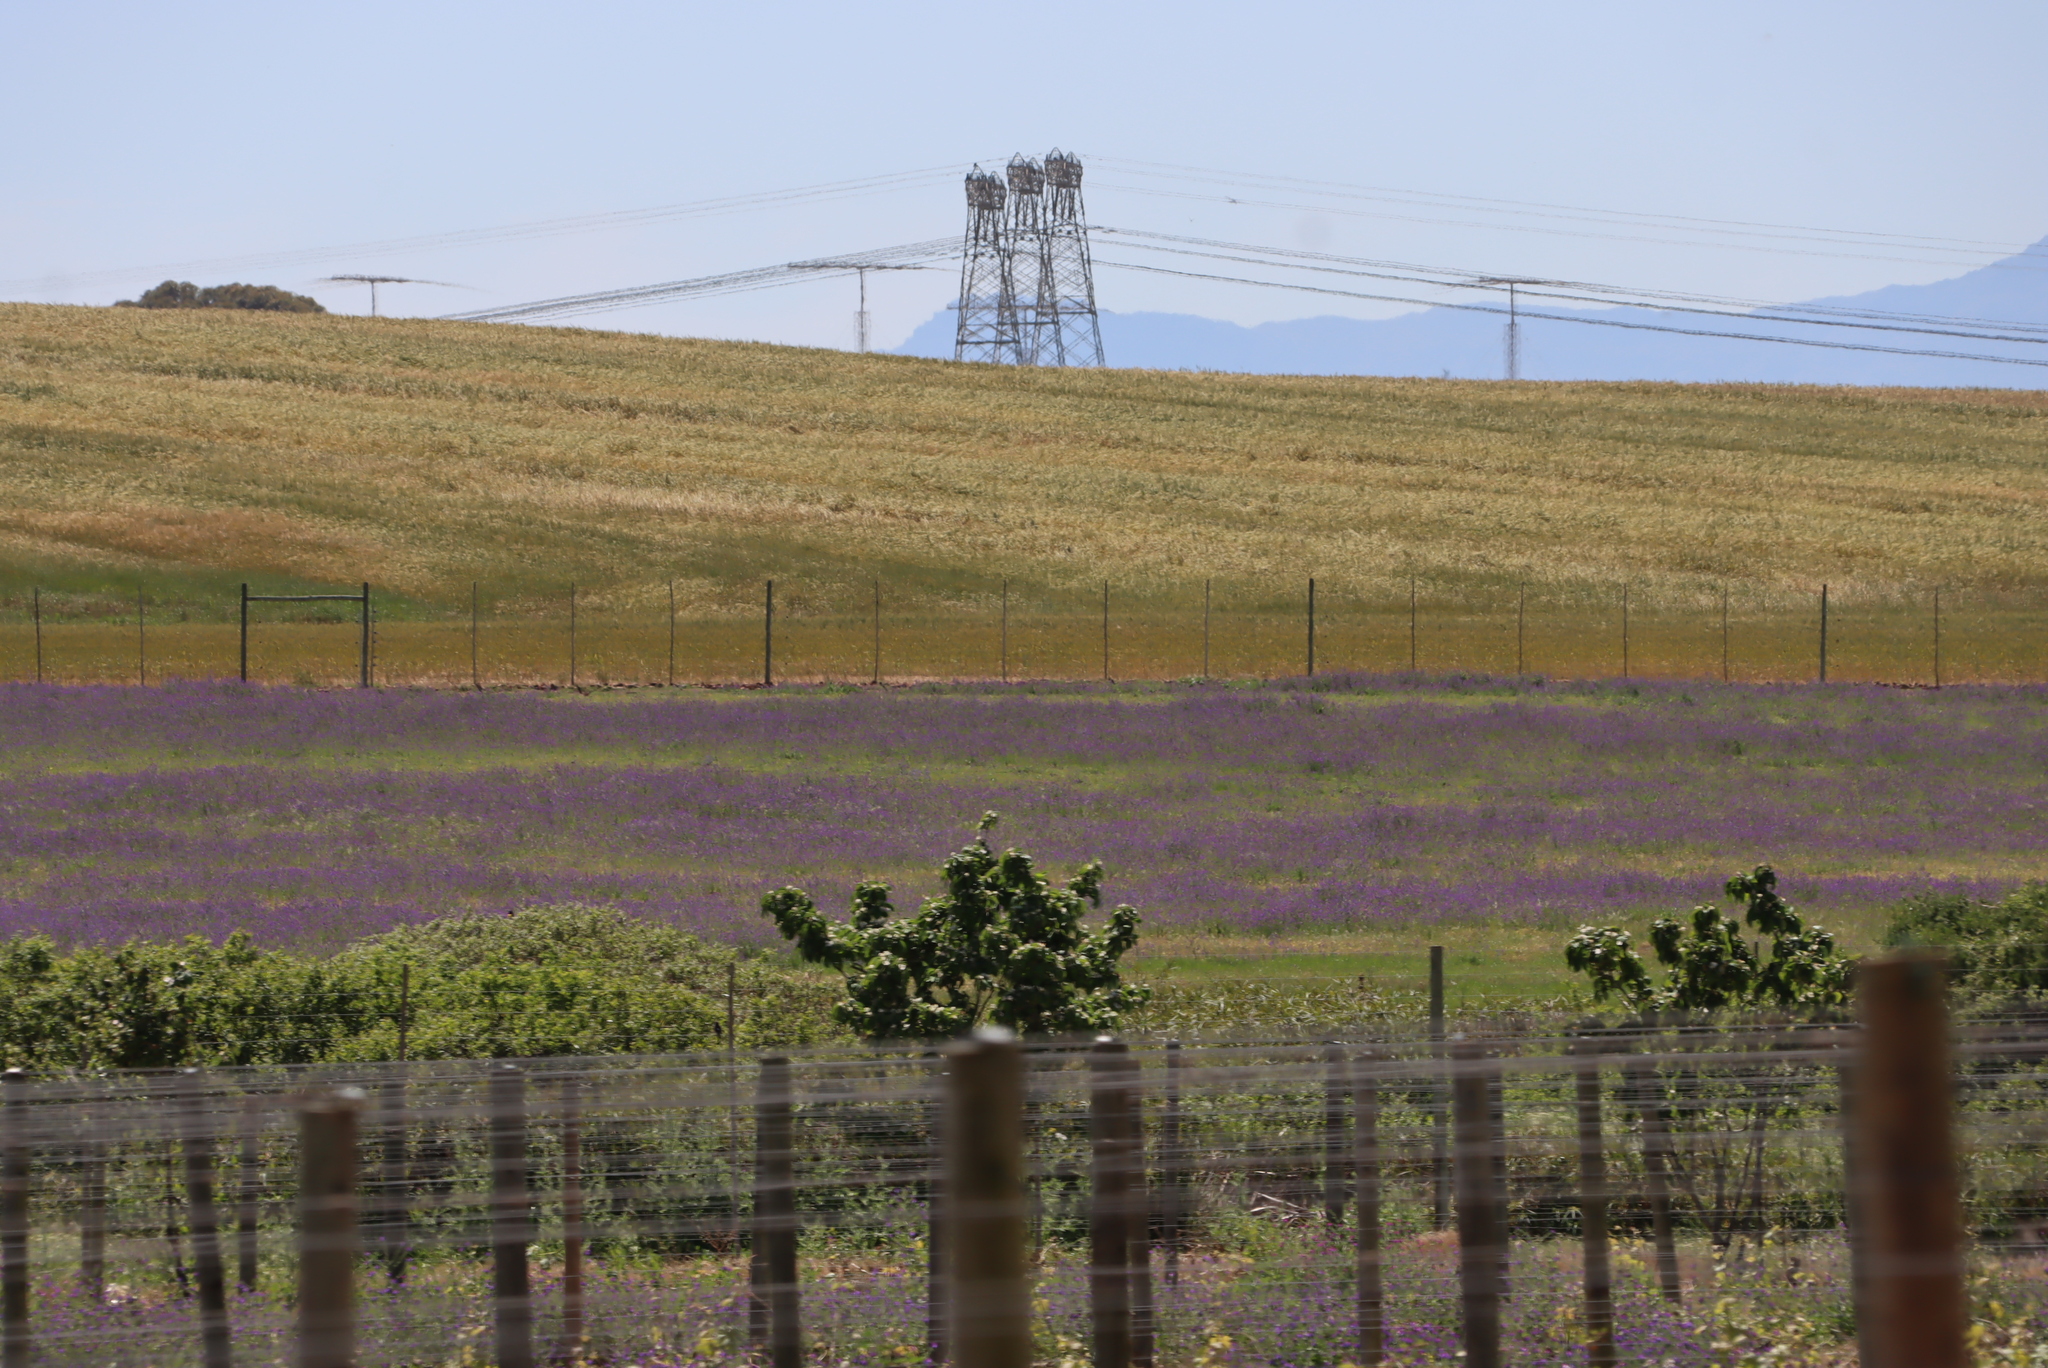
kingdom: Plantae
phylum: Tracheophyta
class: Magnoliopsida
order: Boraginales
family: Boraginaceae
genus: Echium
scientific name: Echium plantagineum
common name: Purple viper's-bugloss
